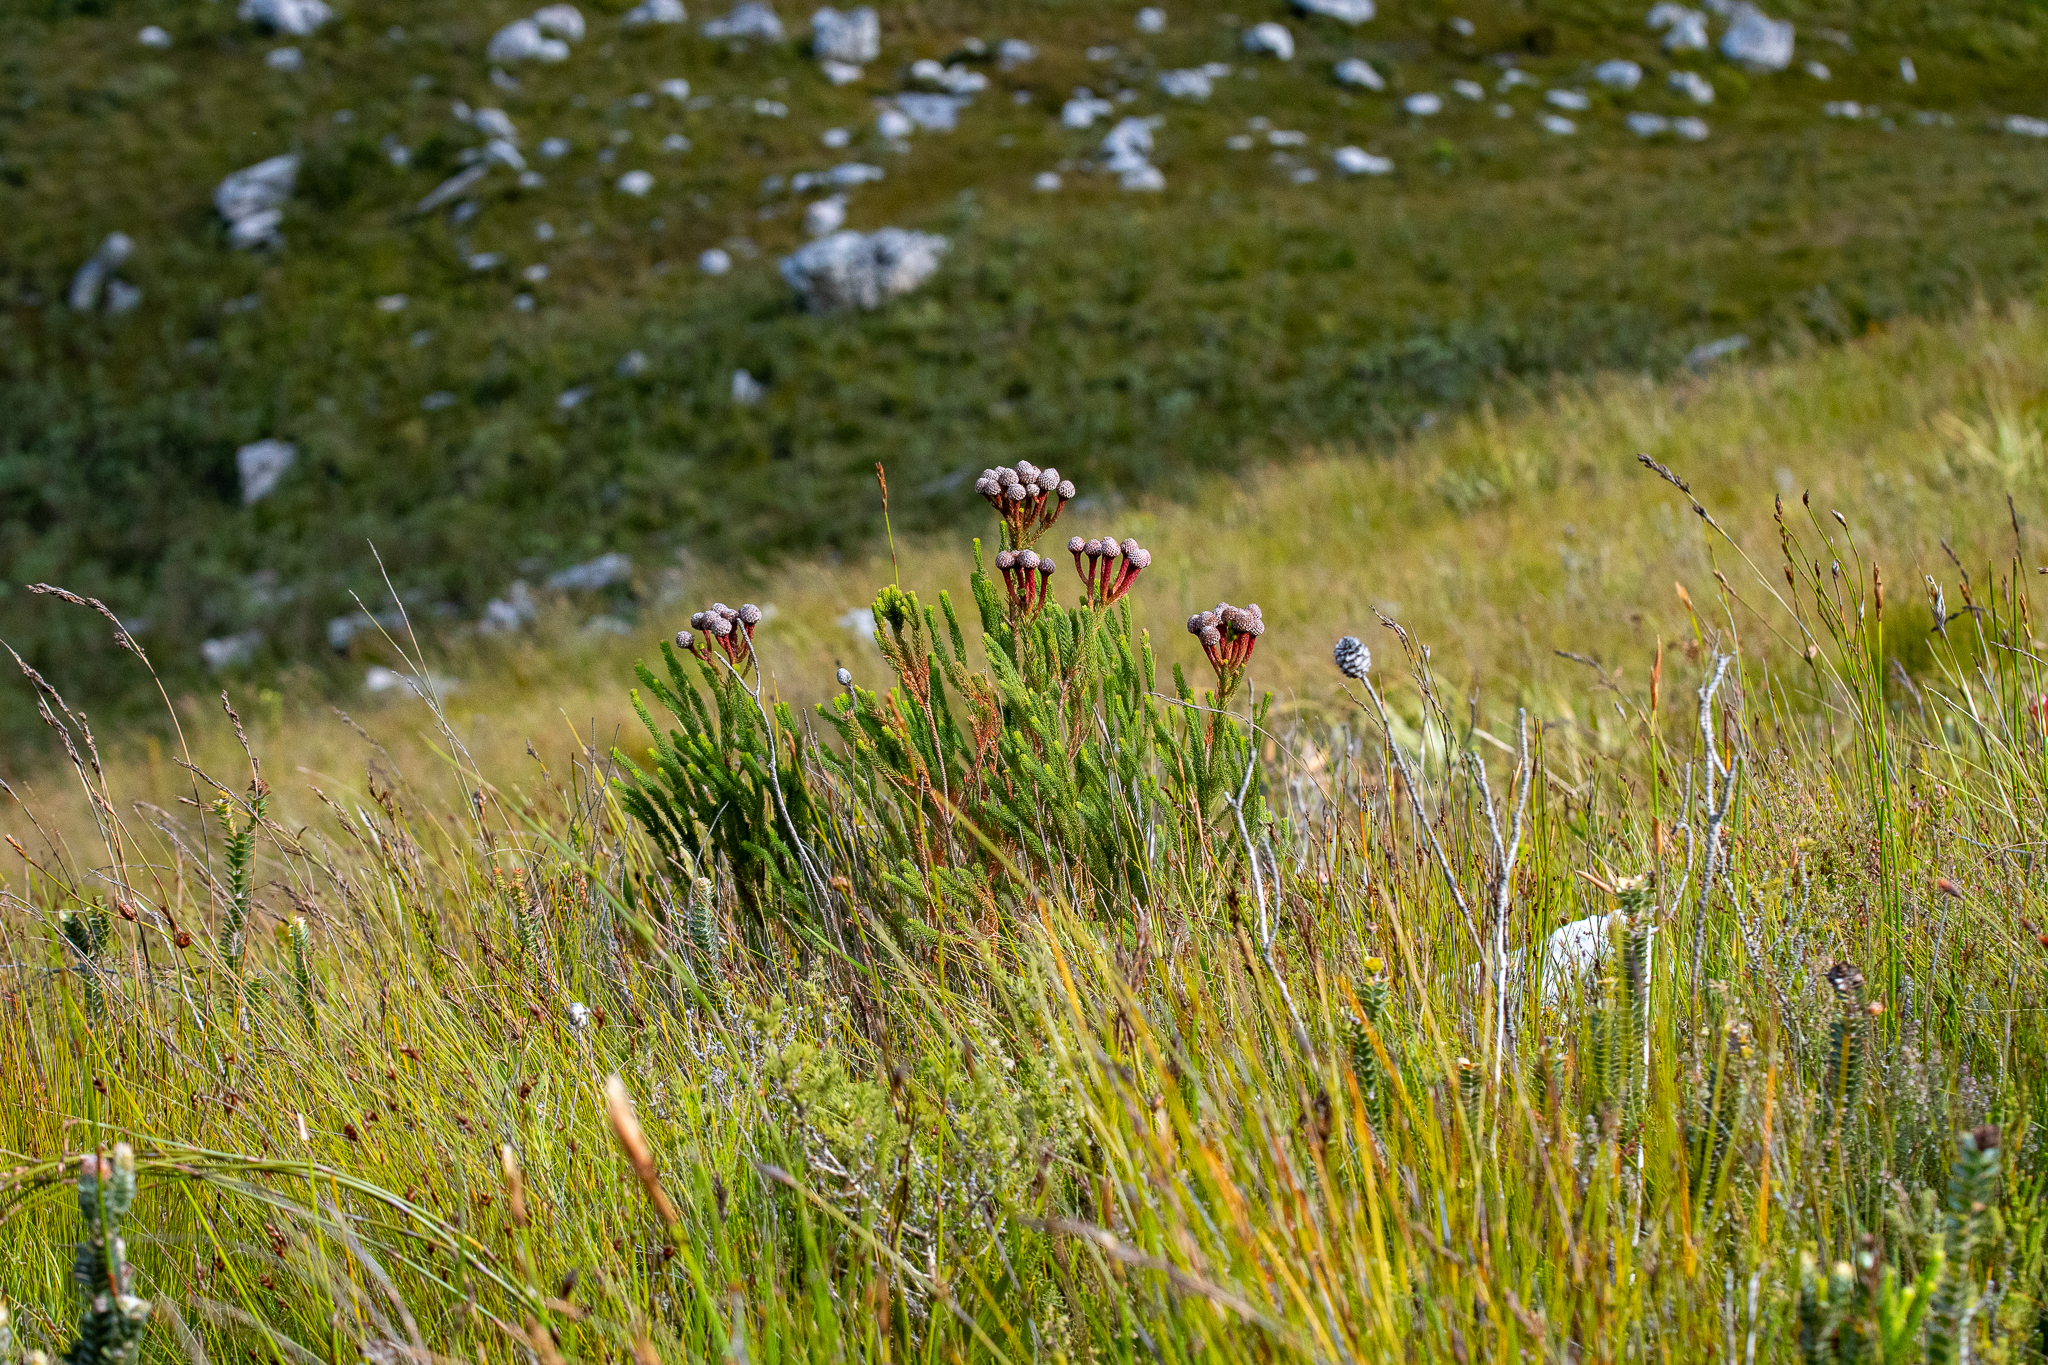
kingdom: Plantae
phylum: Tracheophyta
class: Magnoliopsida
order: Bruniales
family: Bruniaceae
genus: Berzelia
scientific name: Berzelia stokoei
